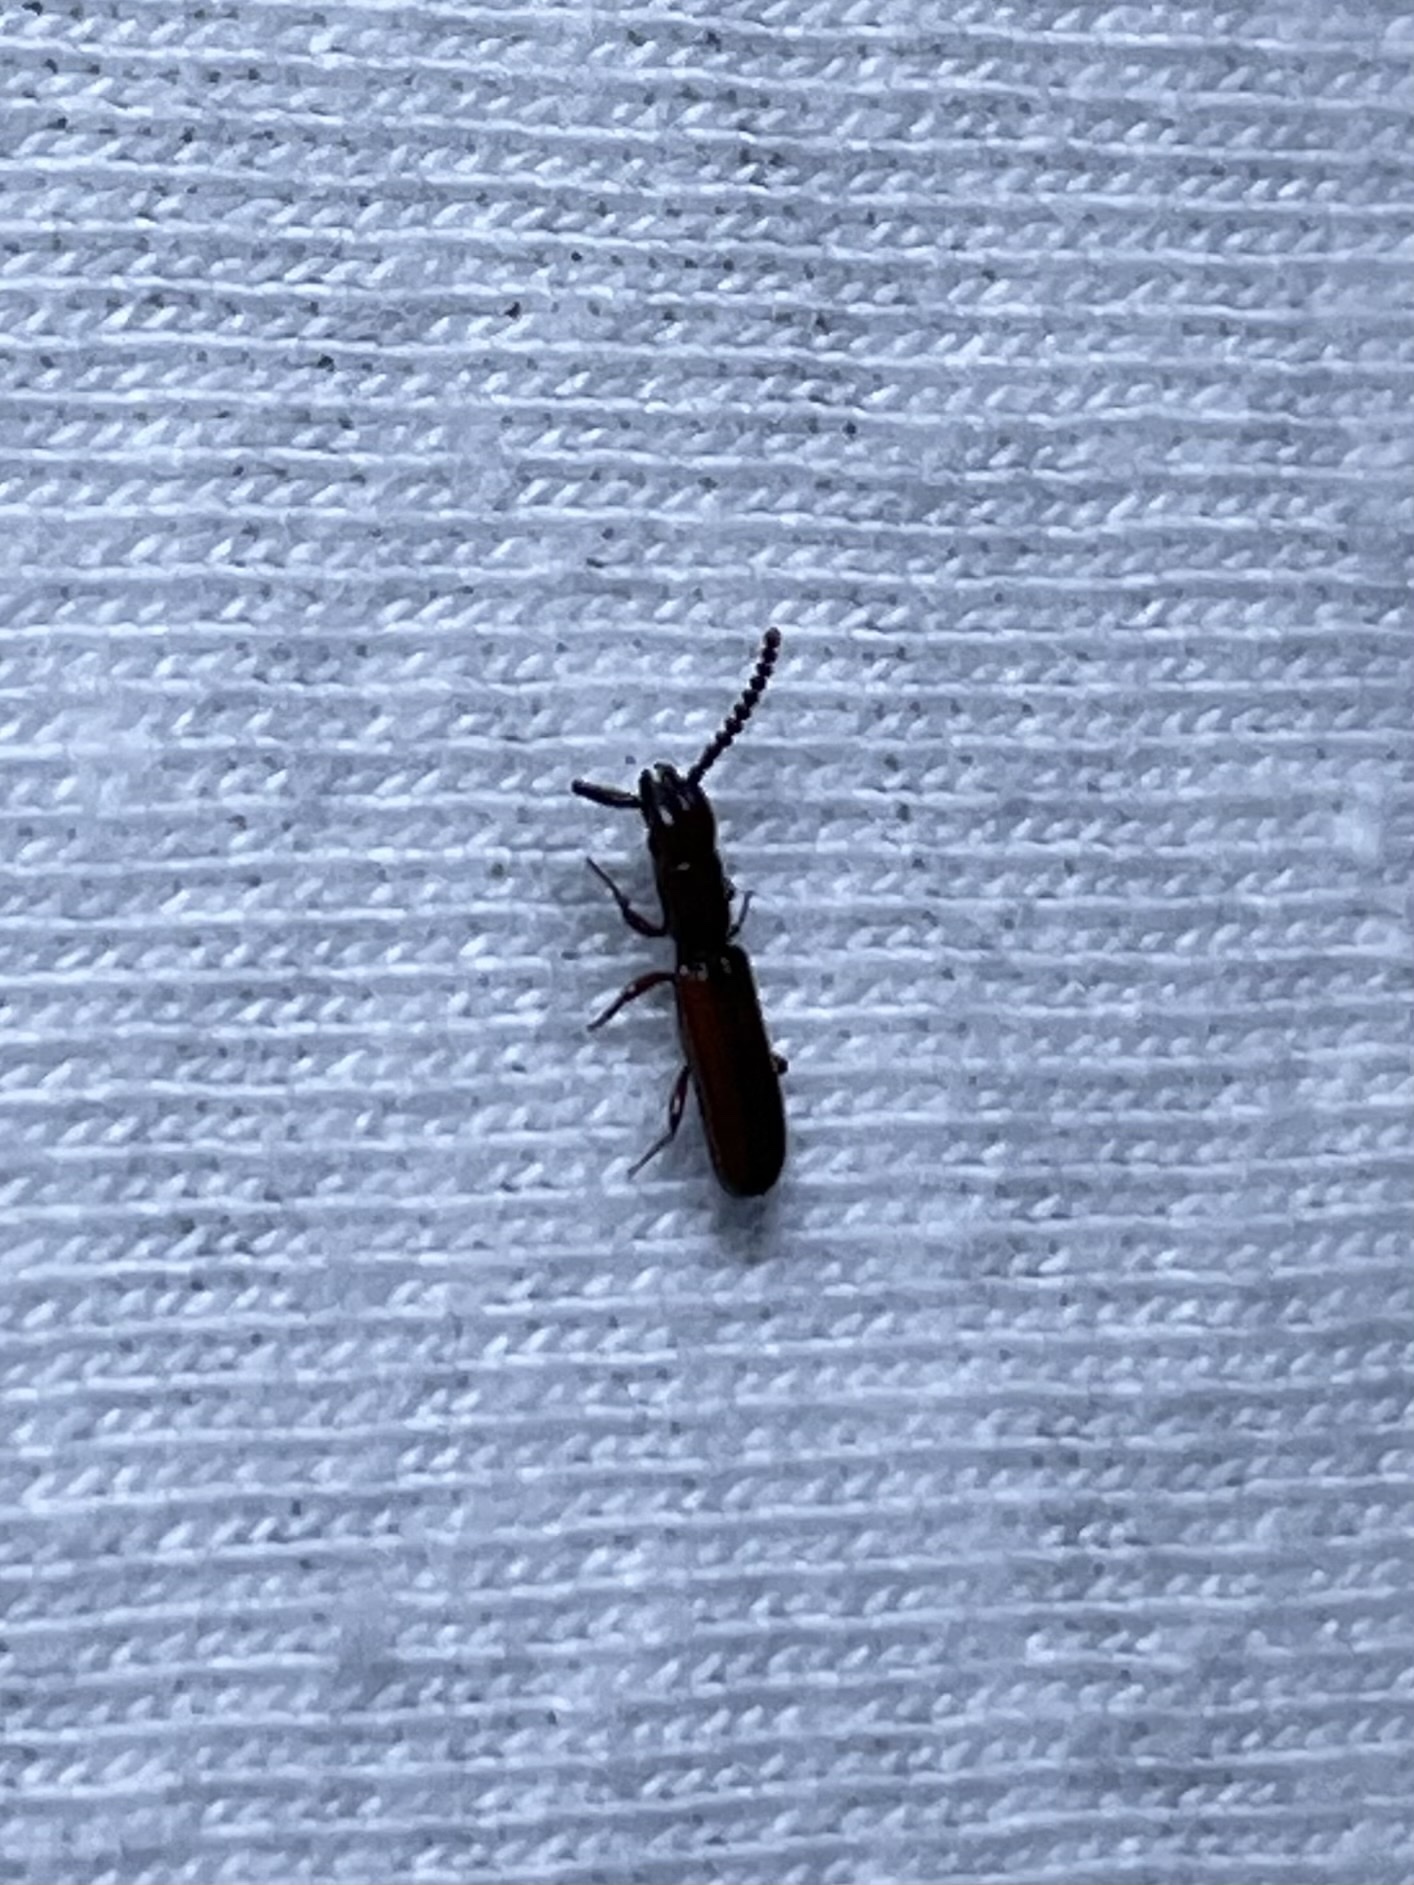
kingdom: Animalia
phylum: Arthropoda
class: Insecta
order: Coleoptera
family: Passandridae
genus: Taphroscelidia
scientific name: Taphroscelidia linearis
